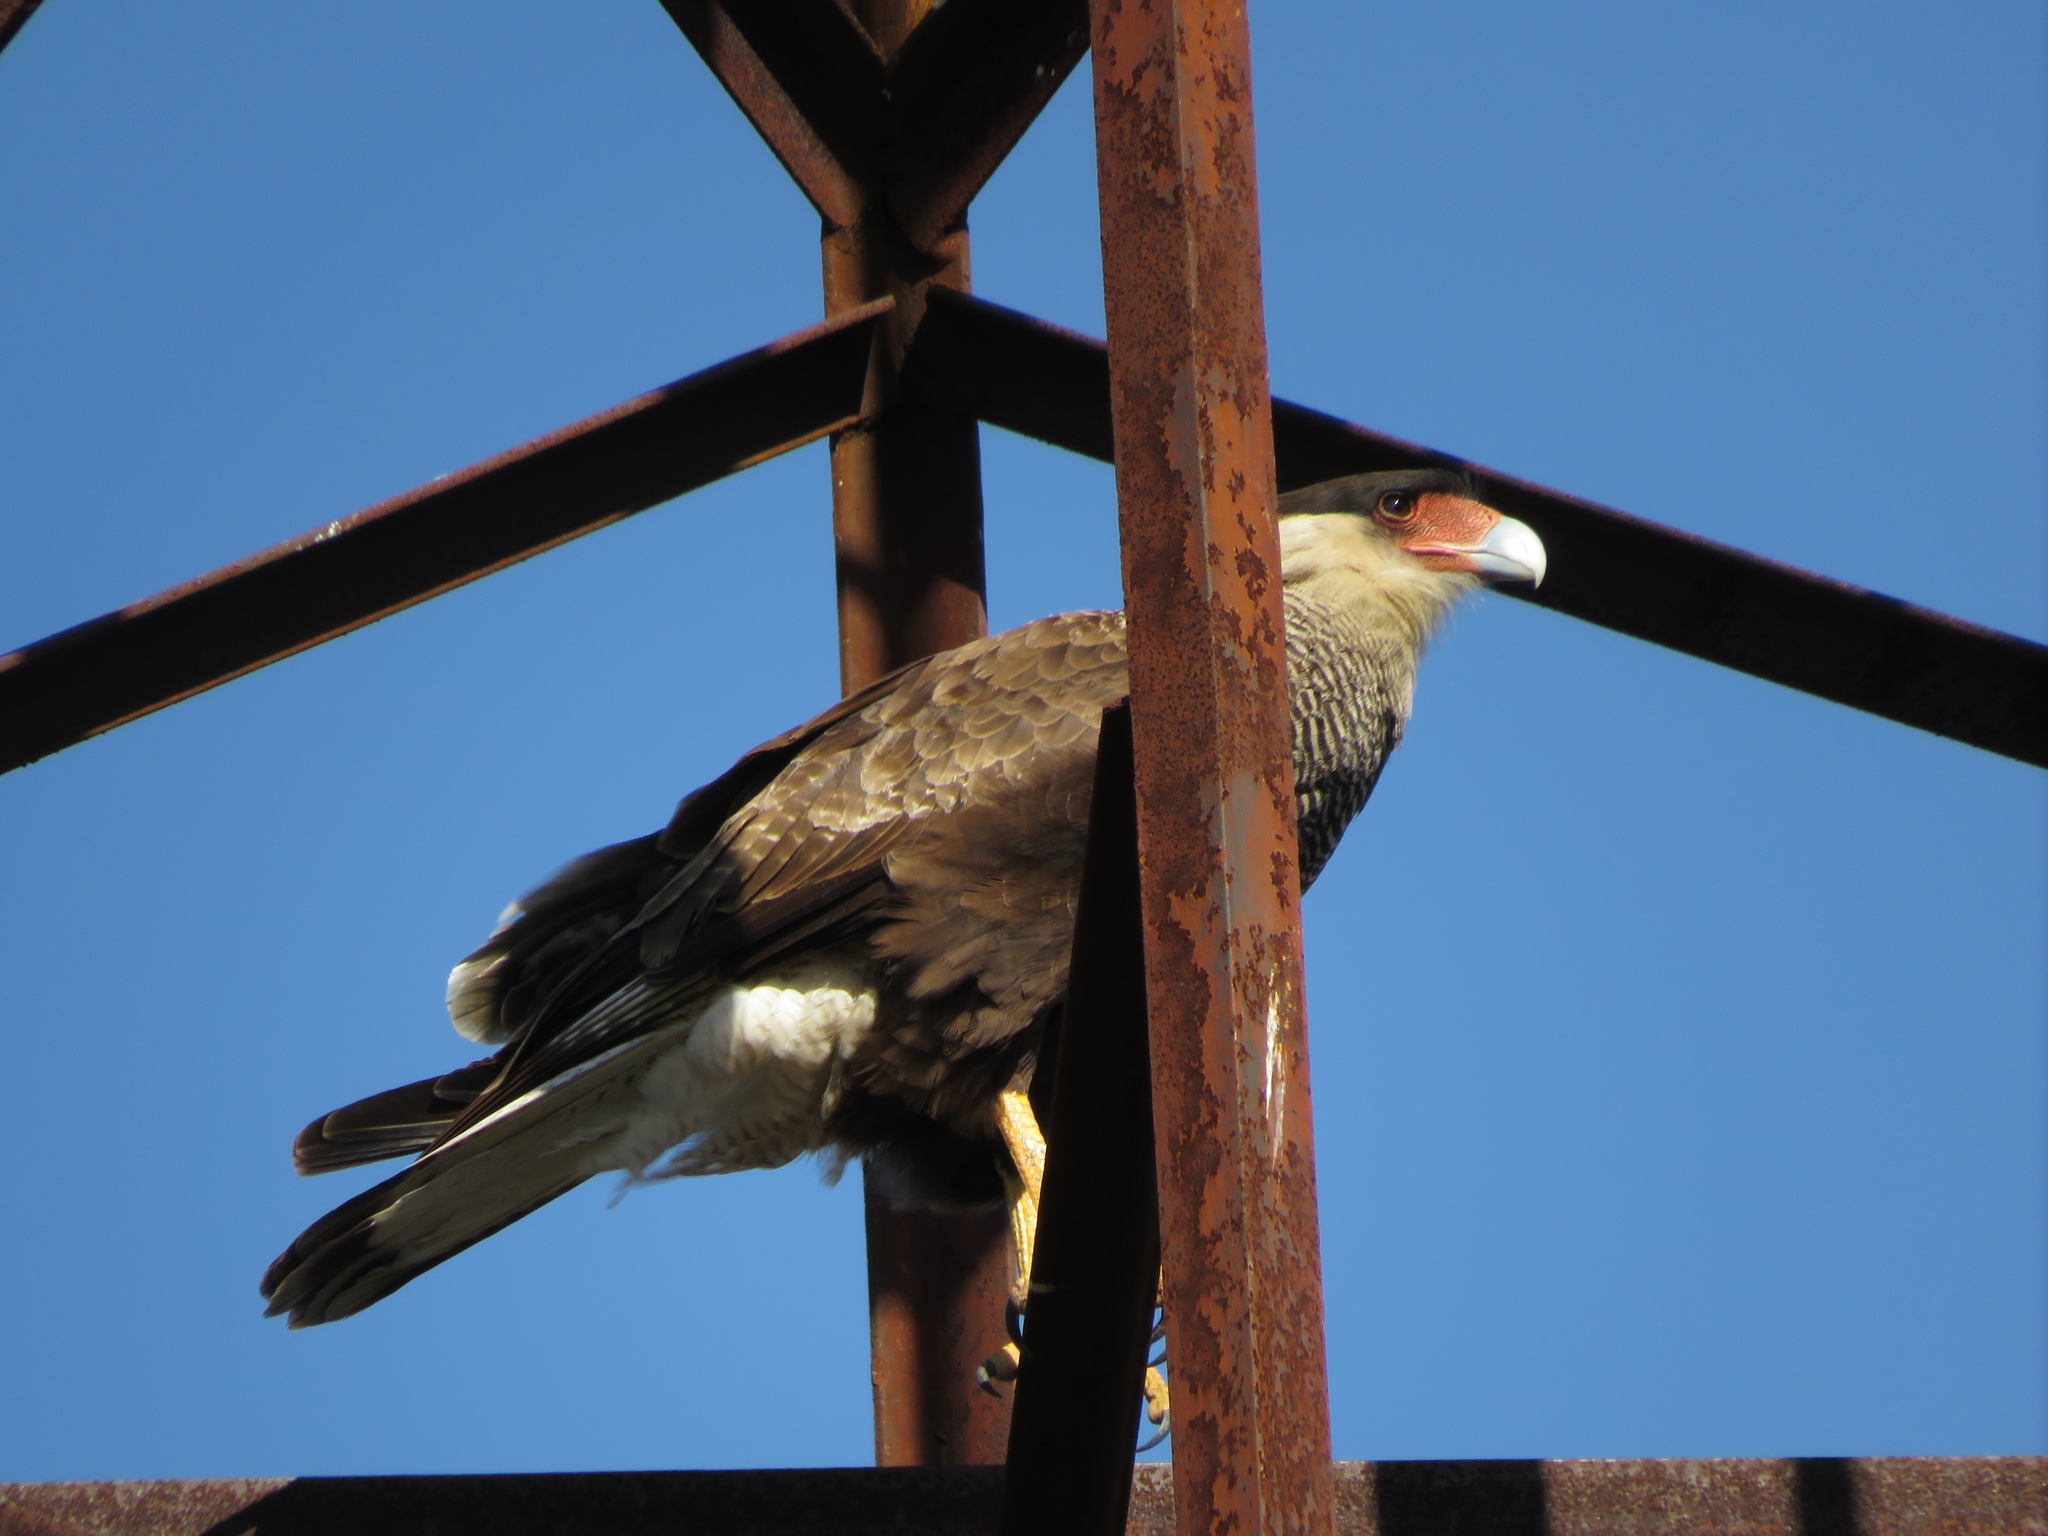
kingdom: Animalia
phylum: Chordata
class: Aves
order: Falconiformes
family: Falconidae
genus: Caracara
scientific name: Caracara plancus
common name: Southern caracara
